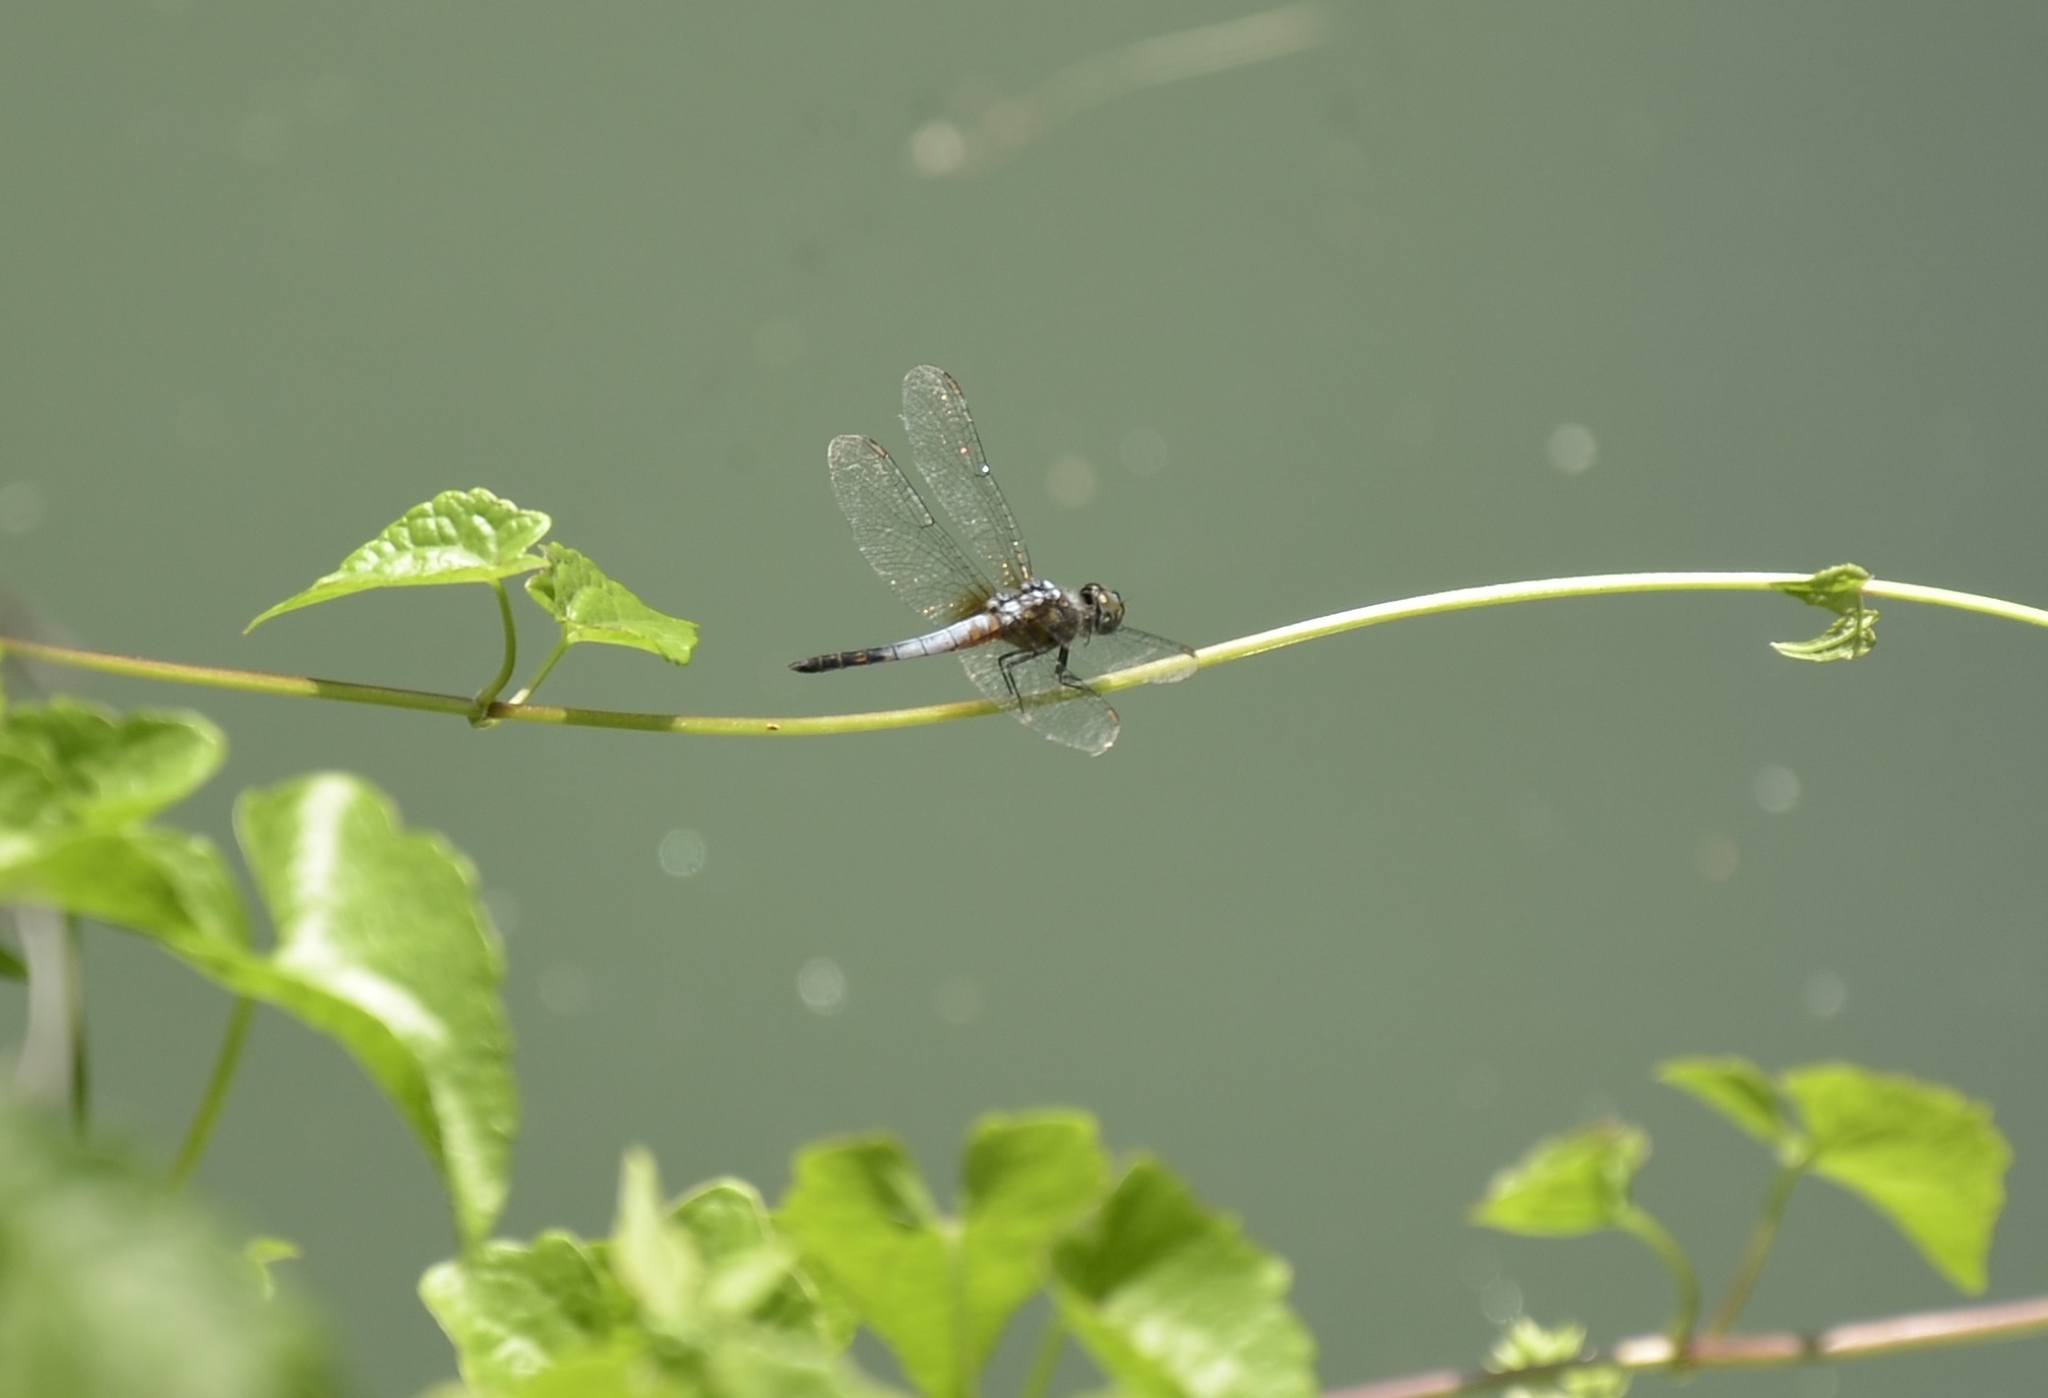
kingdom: Animalia
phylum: Arthropoda
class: Insecta
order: Odonata
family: Libellulidae
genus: Brachydiplax
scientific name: Brachydiplax chalybea
